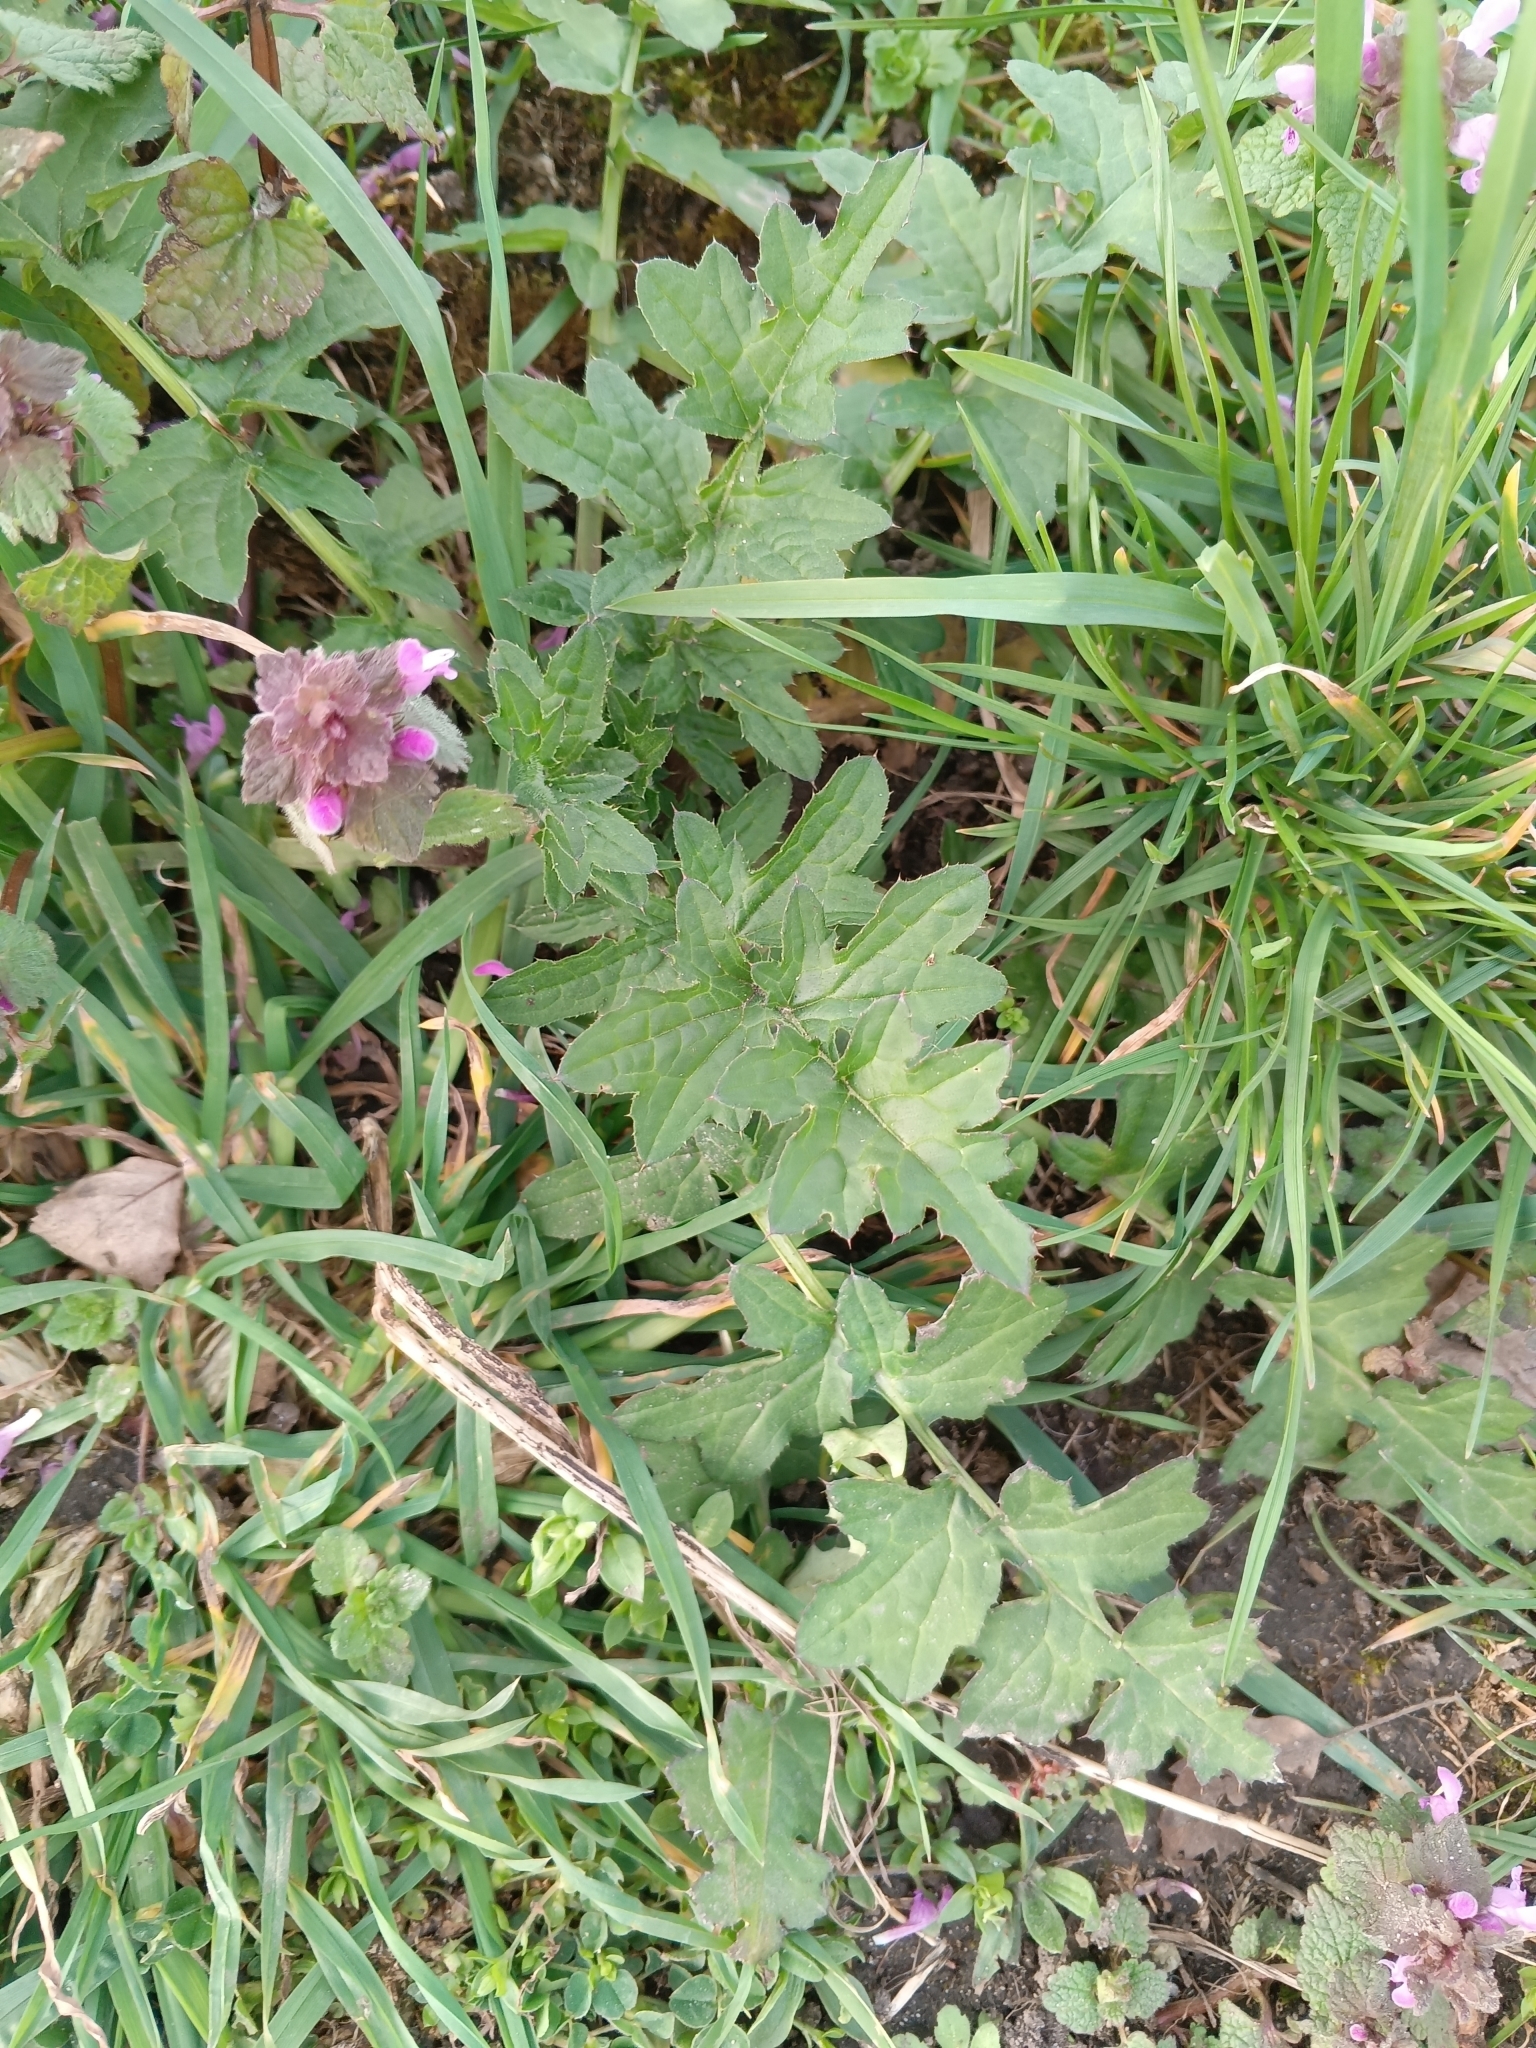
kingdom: Plantae
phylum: Tracheophyta
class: Magnoliopsida
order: Asterales
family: Asteraceae
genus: Carduus
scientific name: Carduus crispus
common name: Welted thistle
